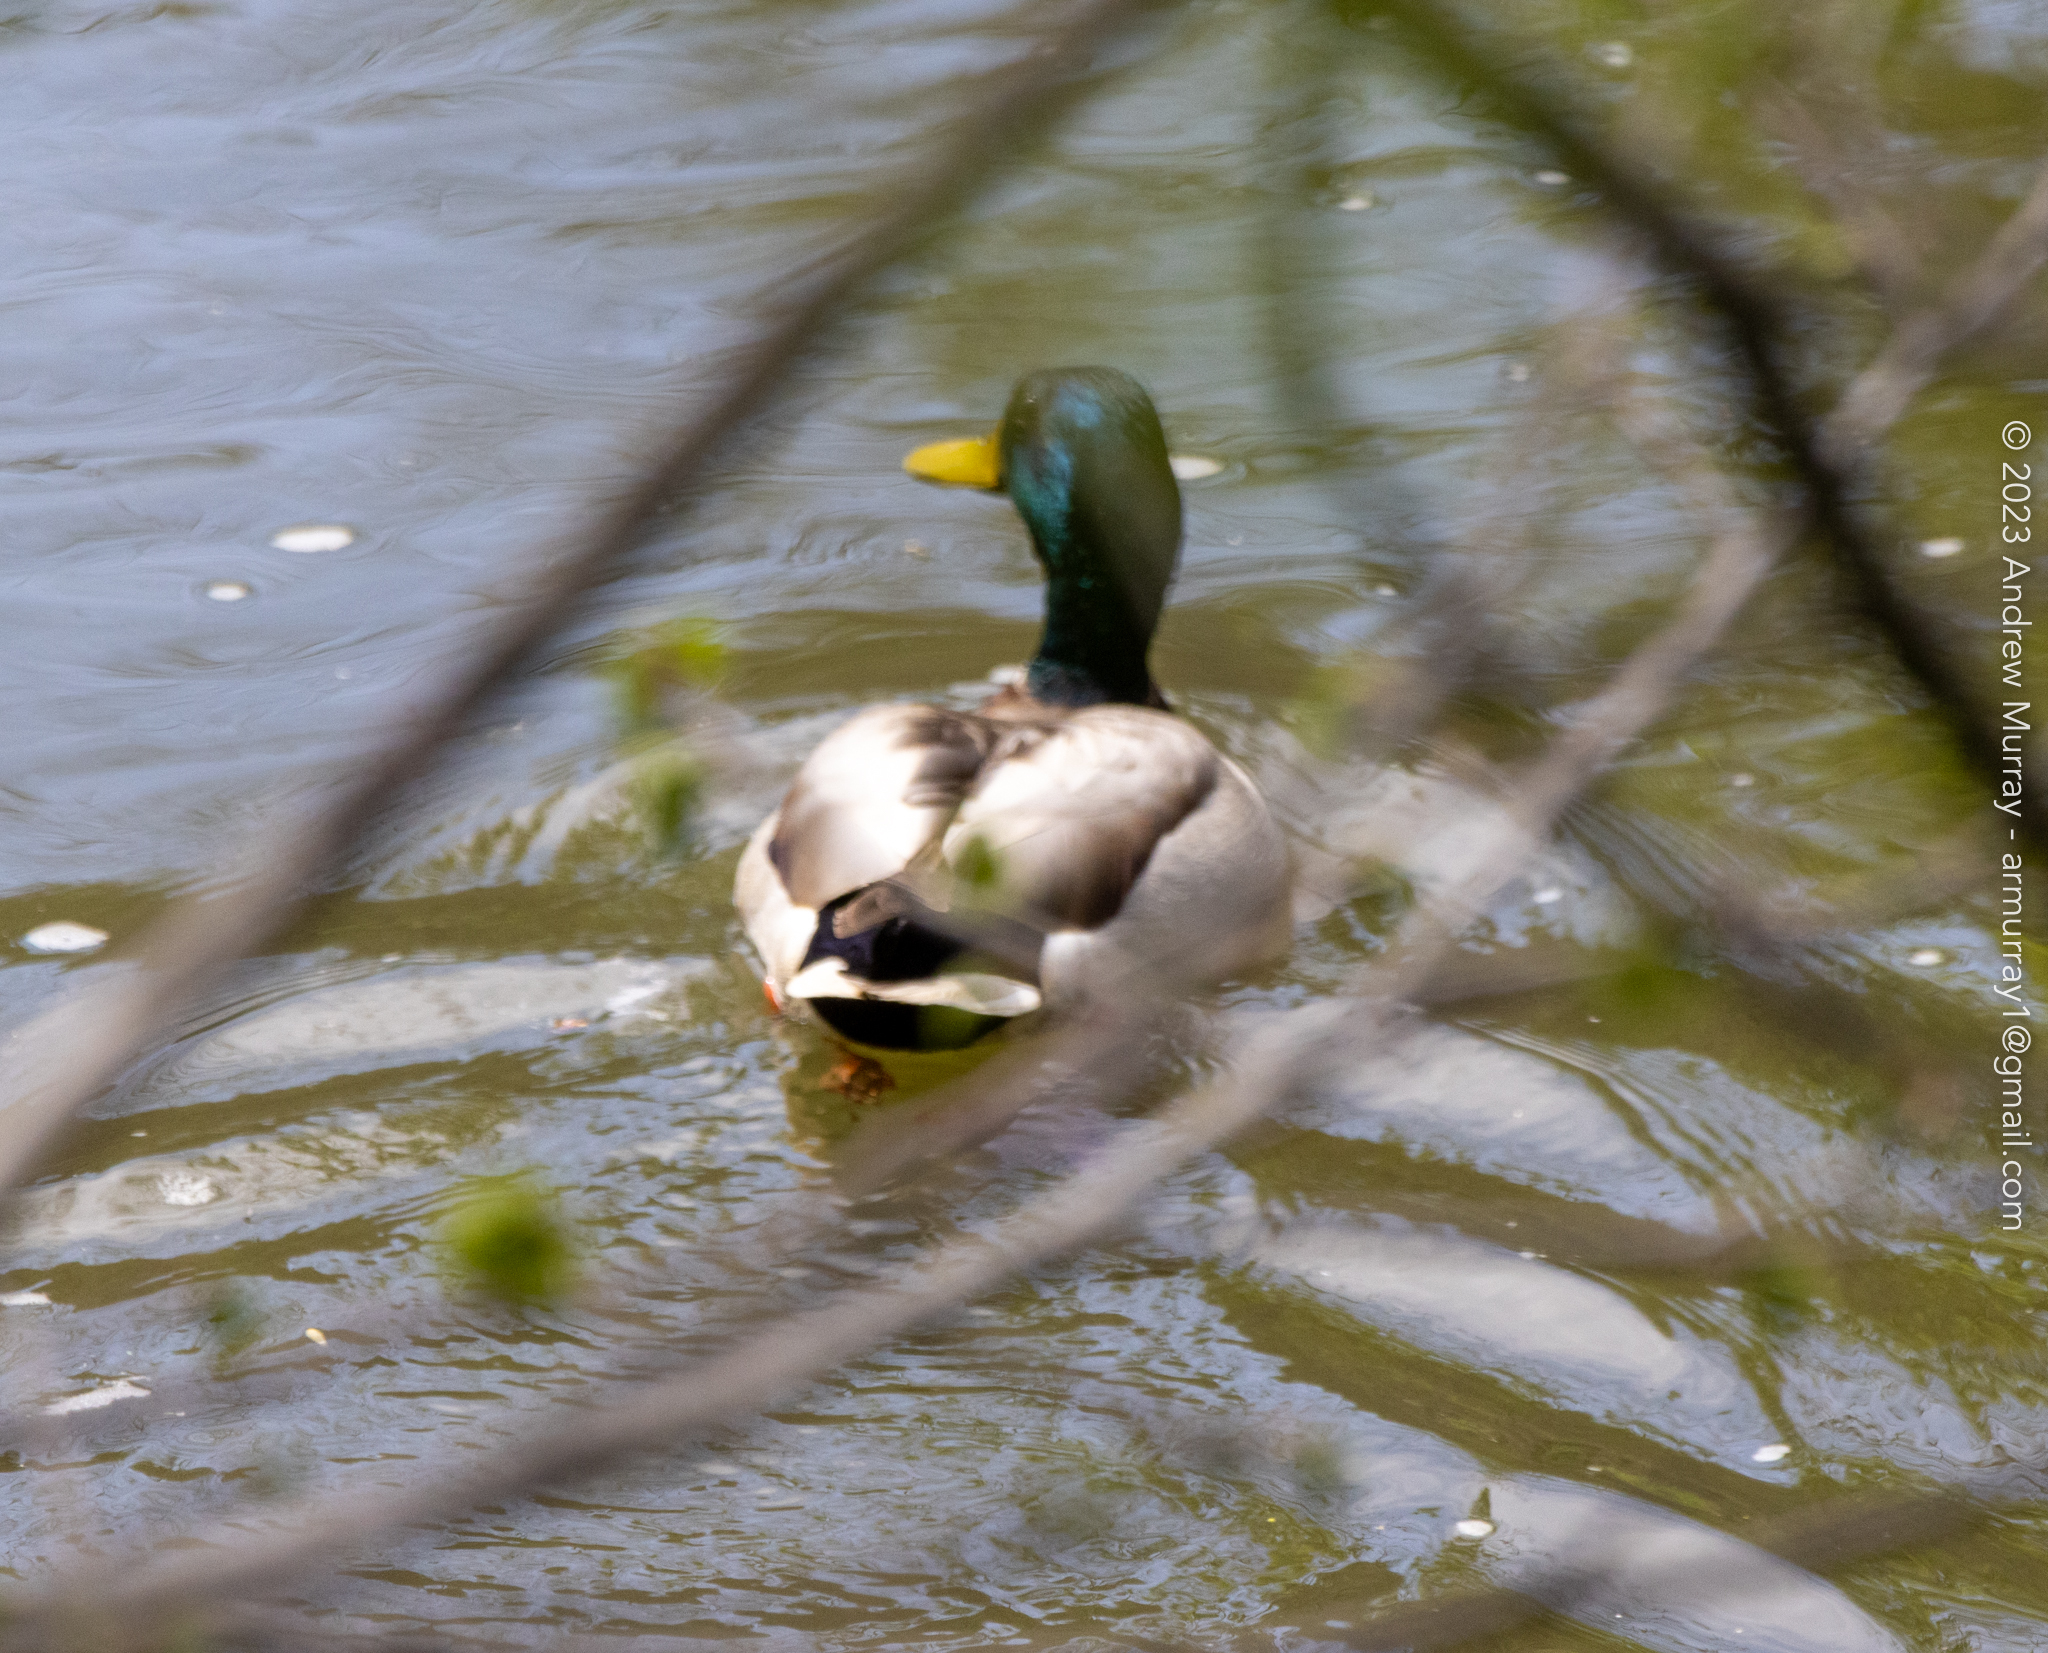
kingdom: Animalia
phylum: Chordata
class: Aves
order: Anseriformes
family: Anatidae
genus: Anas
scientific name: Anas platyrhynchos
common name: Mallard
